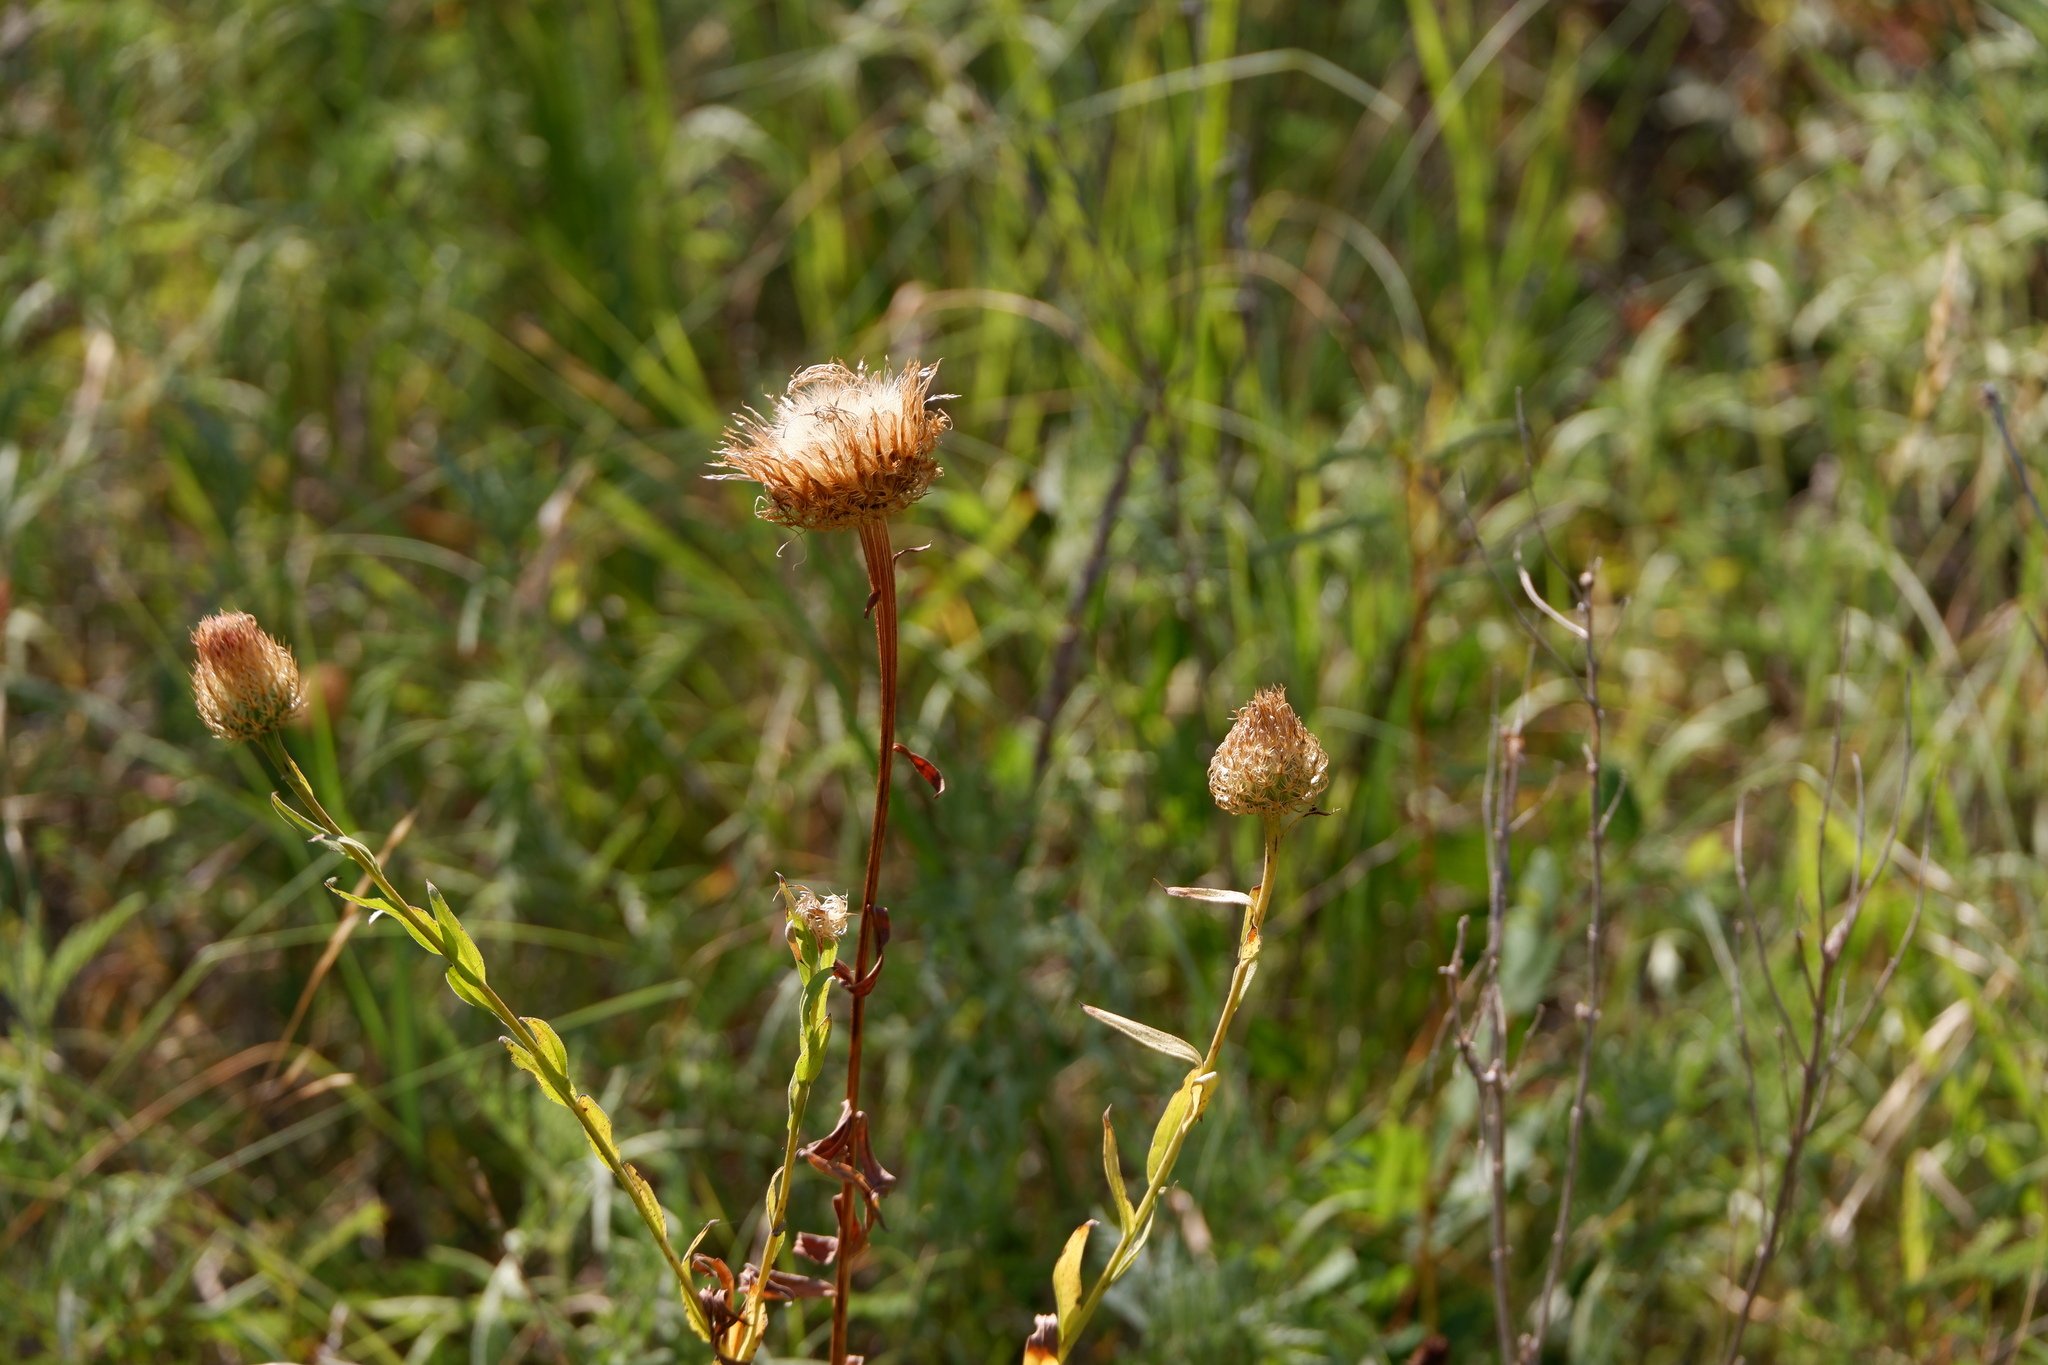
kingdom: Plantae
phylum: Tracheophyta
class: Magnoliopsida
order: Asterales
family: Asteraceae
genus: Plectocephalus
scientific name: Plectocephalus americanus
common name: American basket-flower
